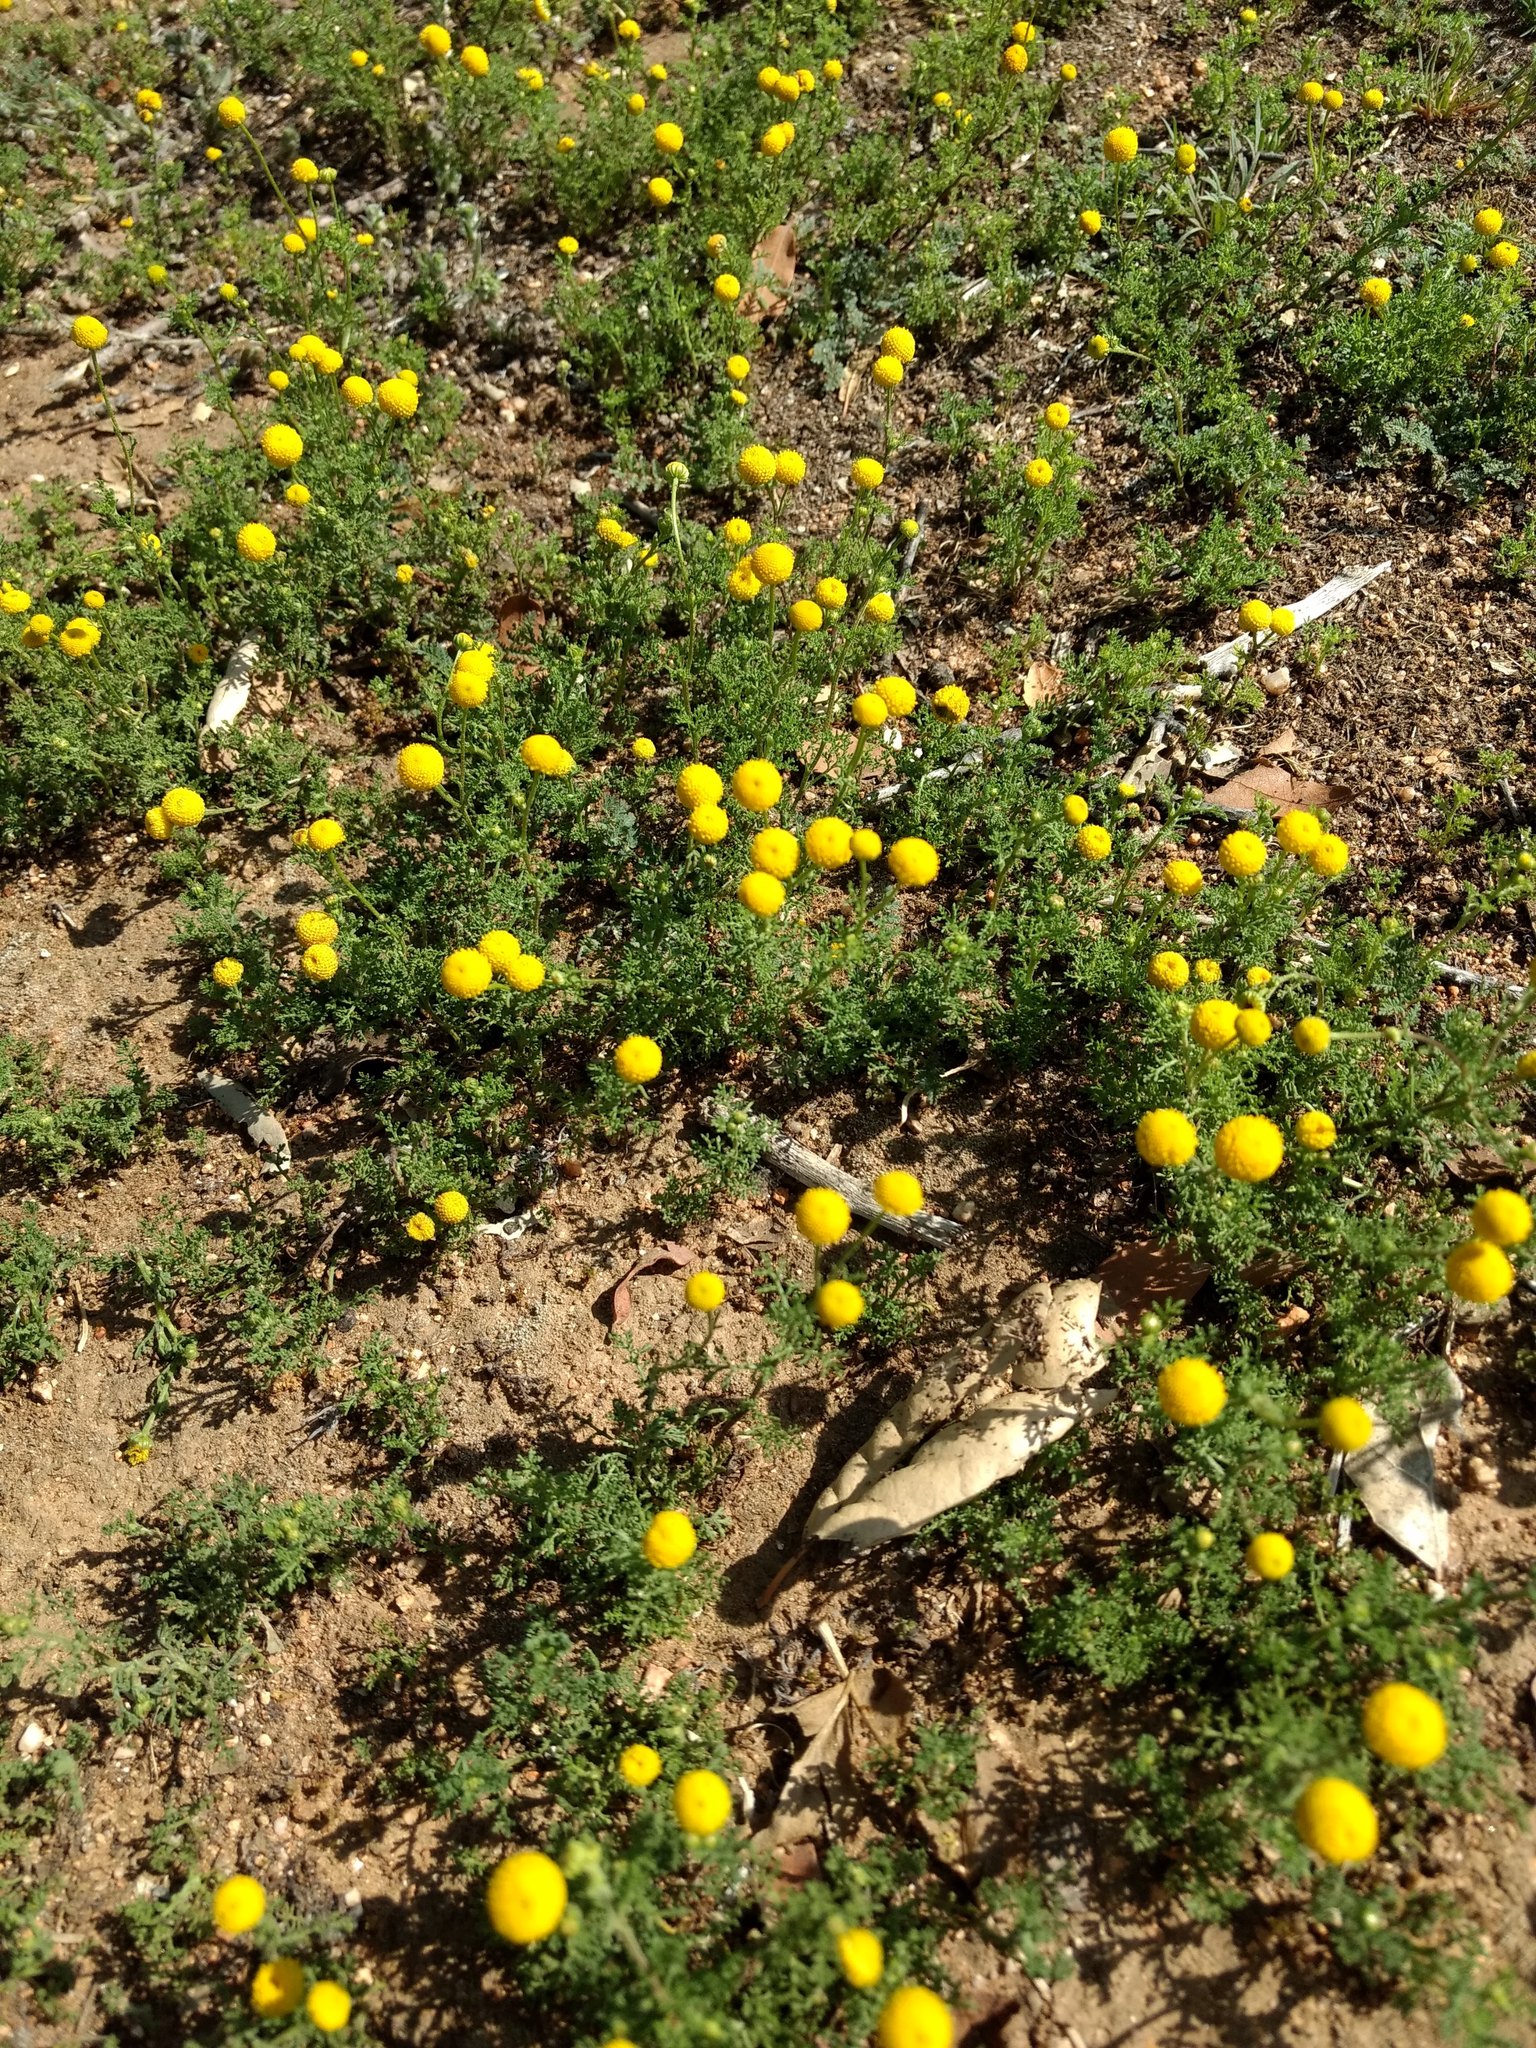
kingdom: Plantae
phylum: Tracheophyta
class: Magnoliopsida
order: Asterales
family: Asteraceae
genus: Oncosiphon
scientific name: Oncosiphon pilulifer
